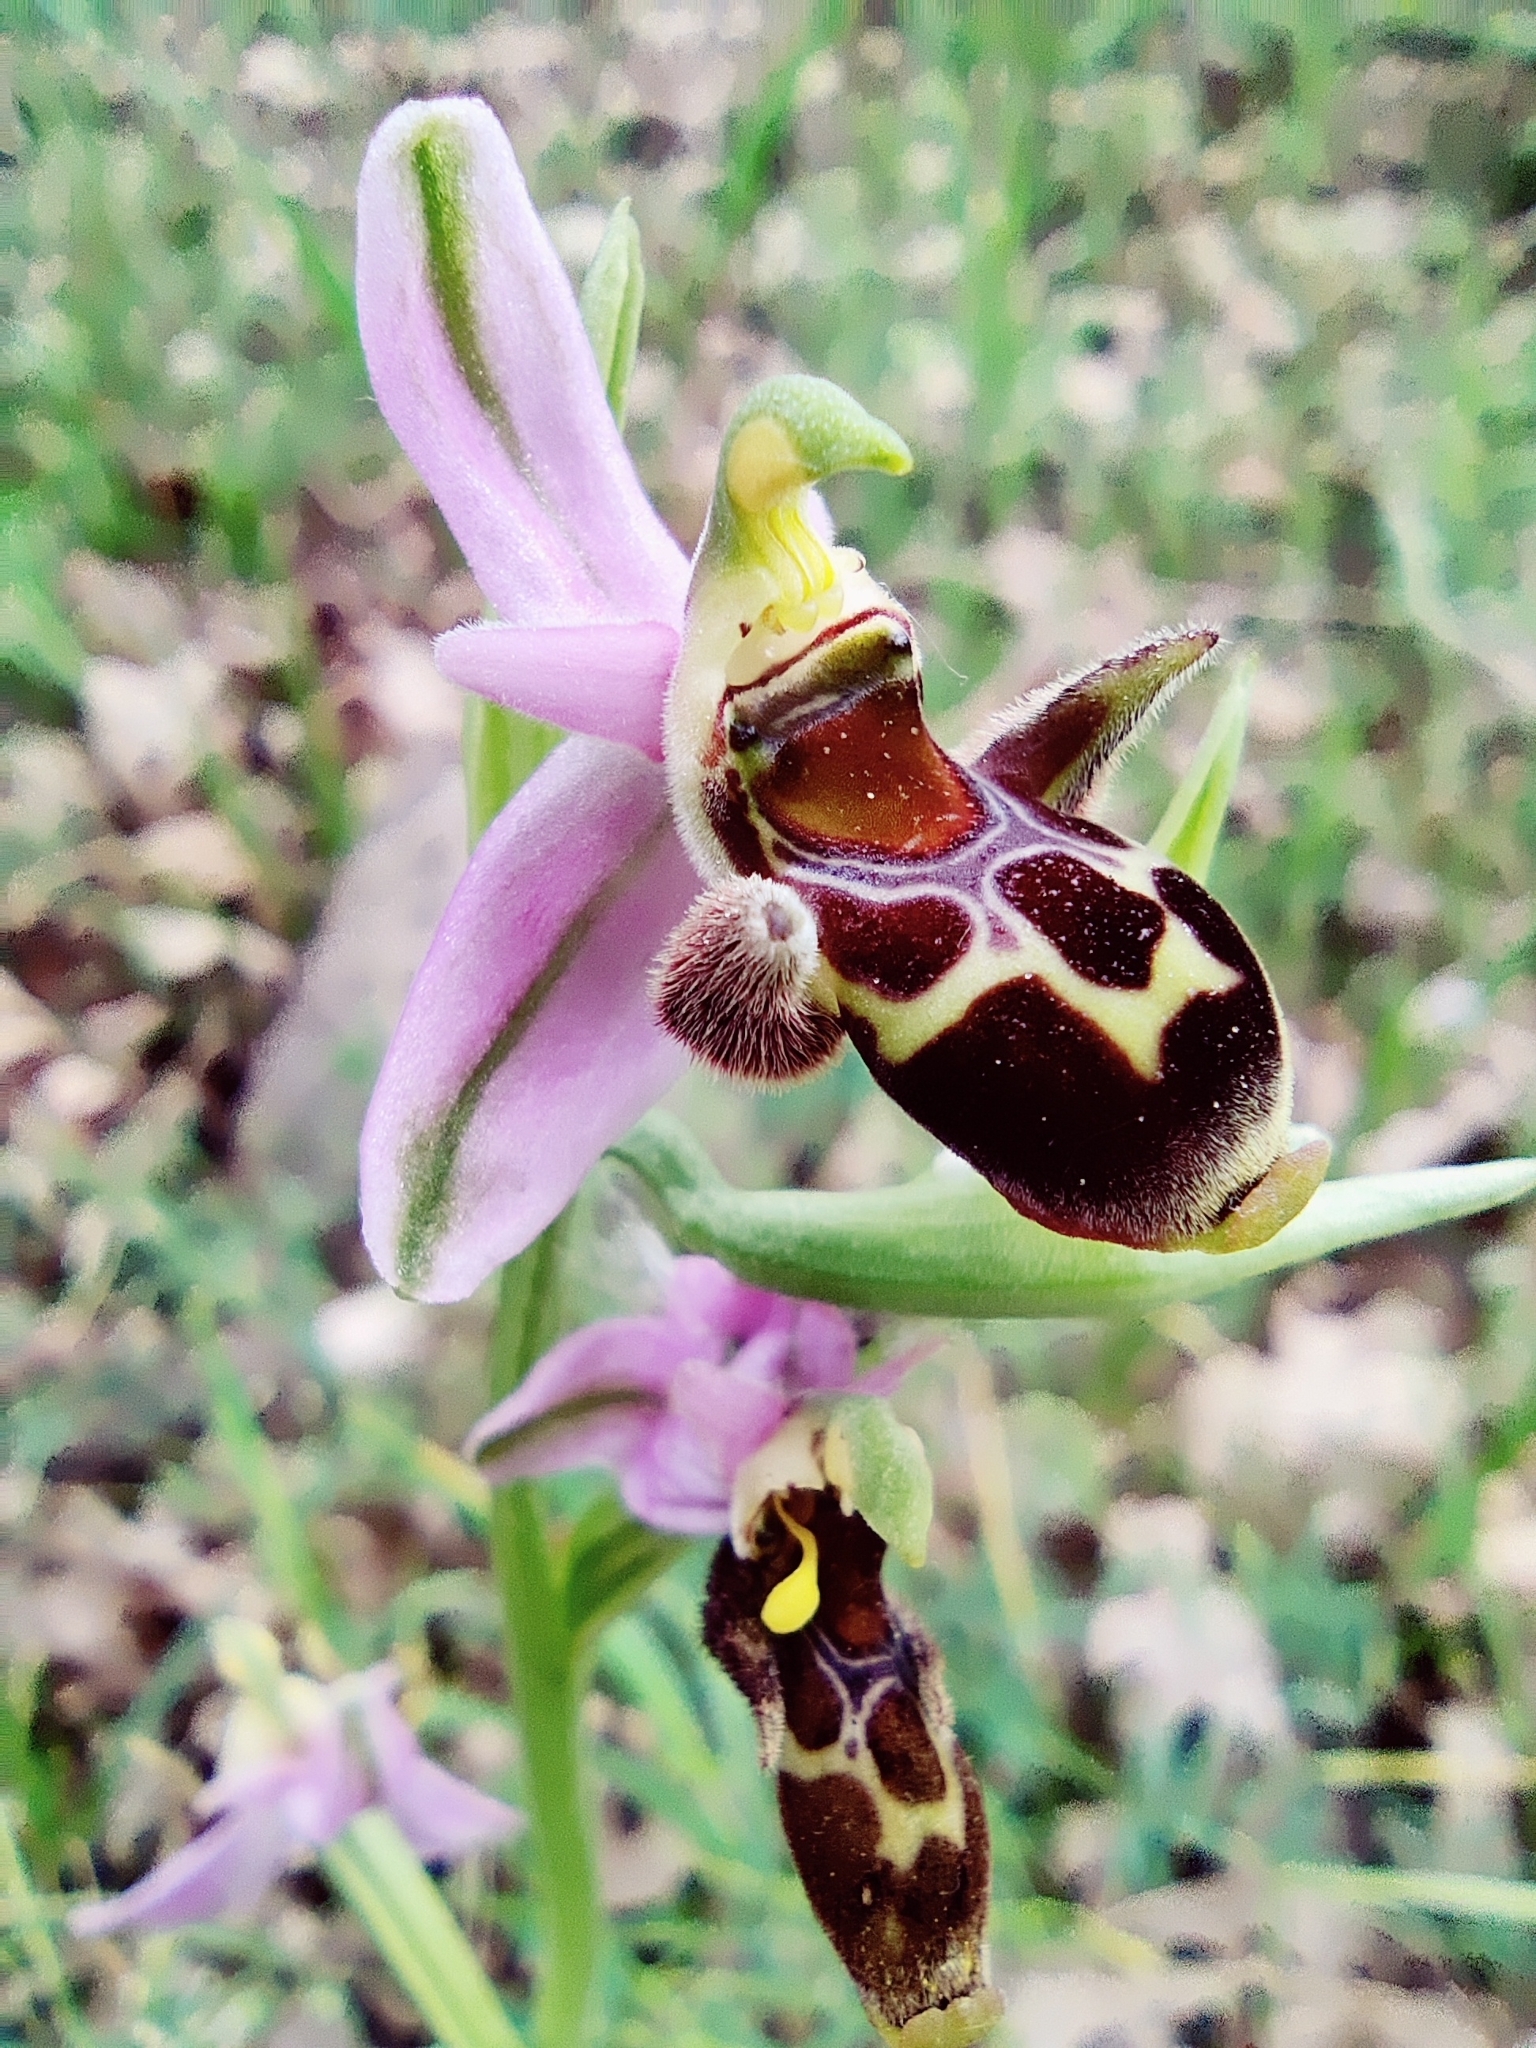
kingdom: Plantae
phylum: Tracheophyta
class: Liliopsida
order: Asparagales
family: Orchidaceae
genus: Ophrys
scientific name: Ophrys
